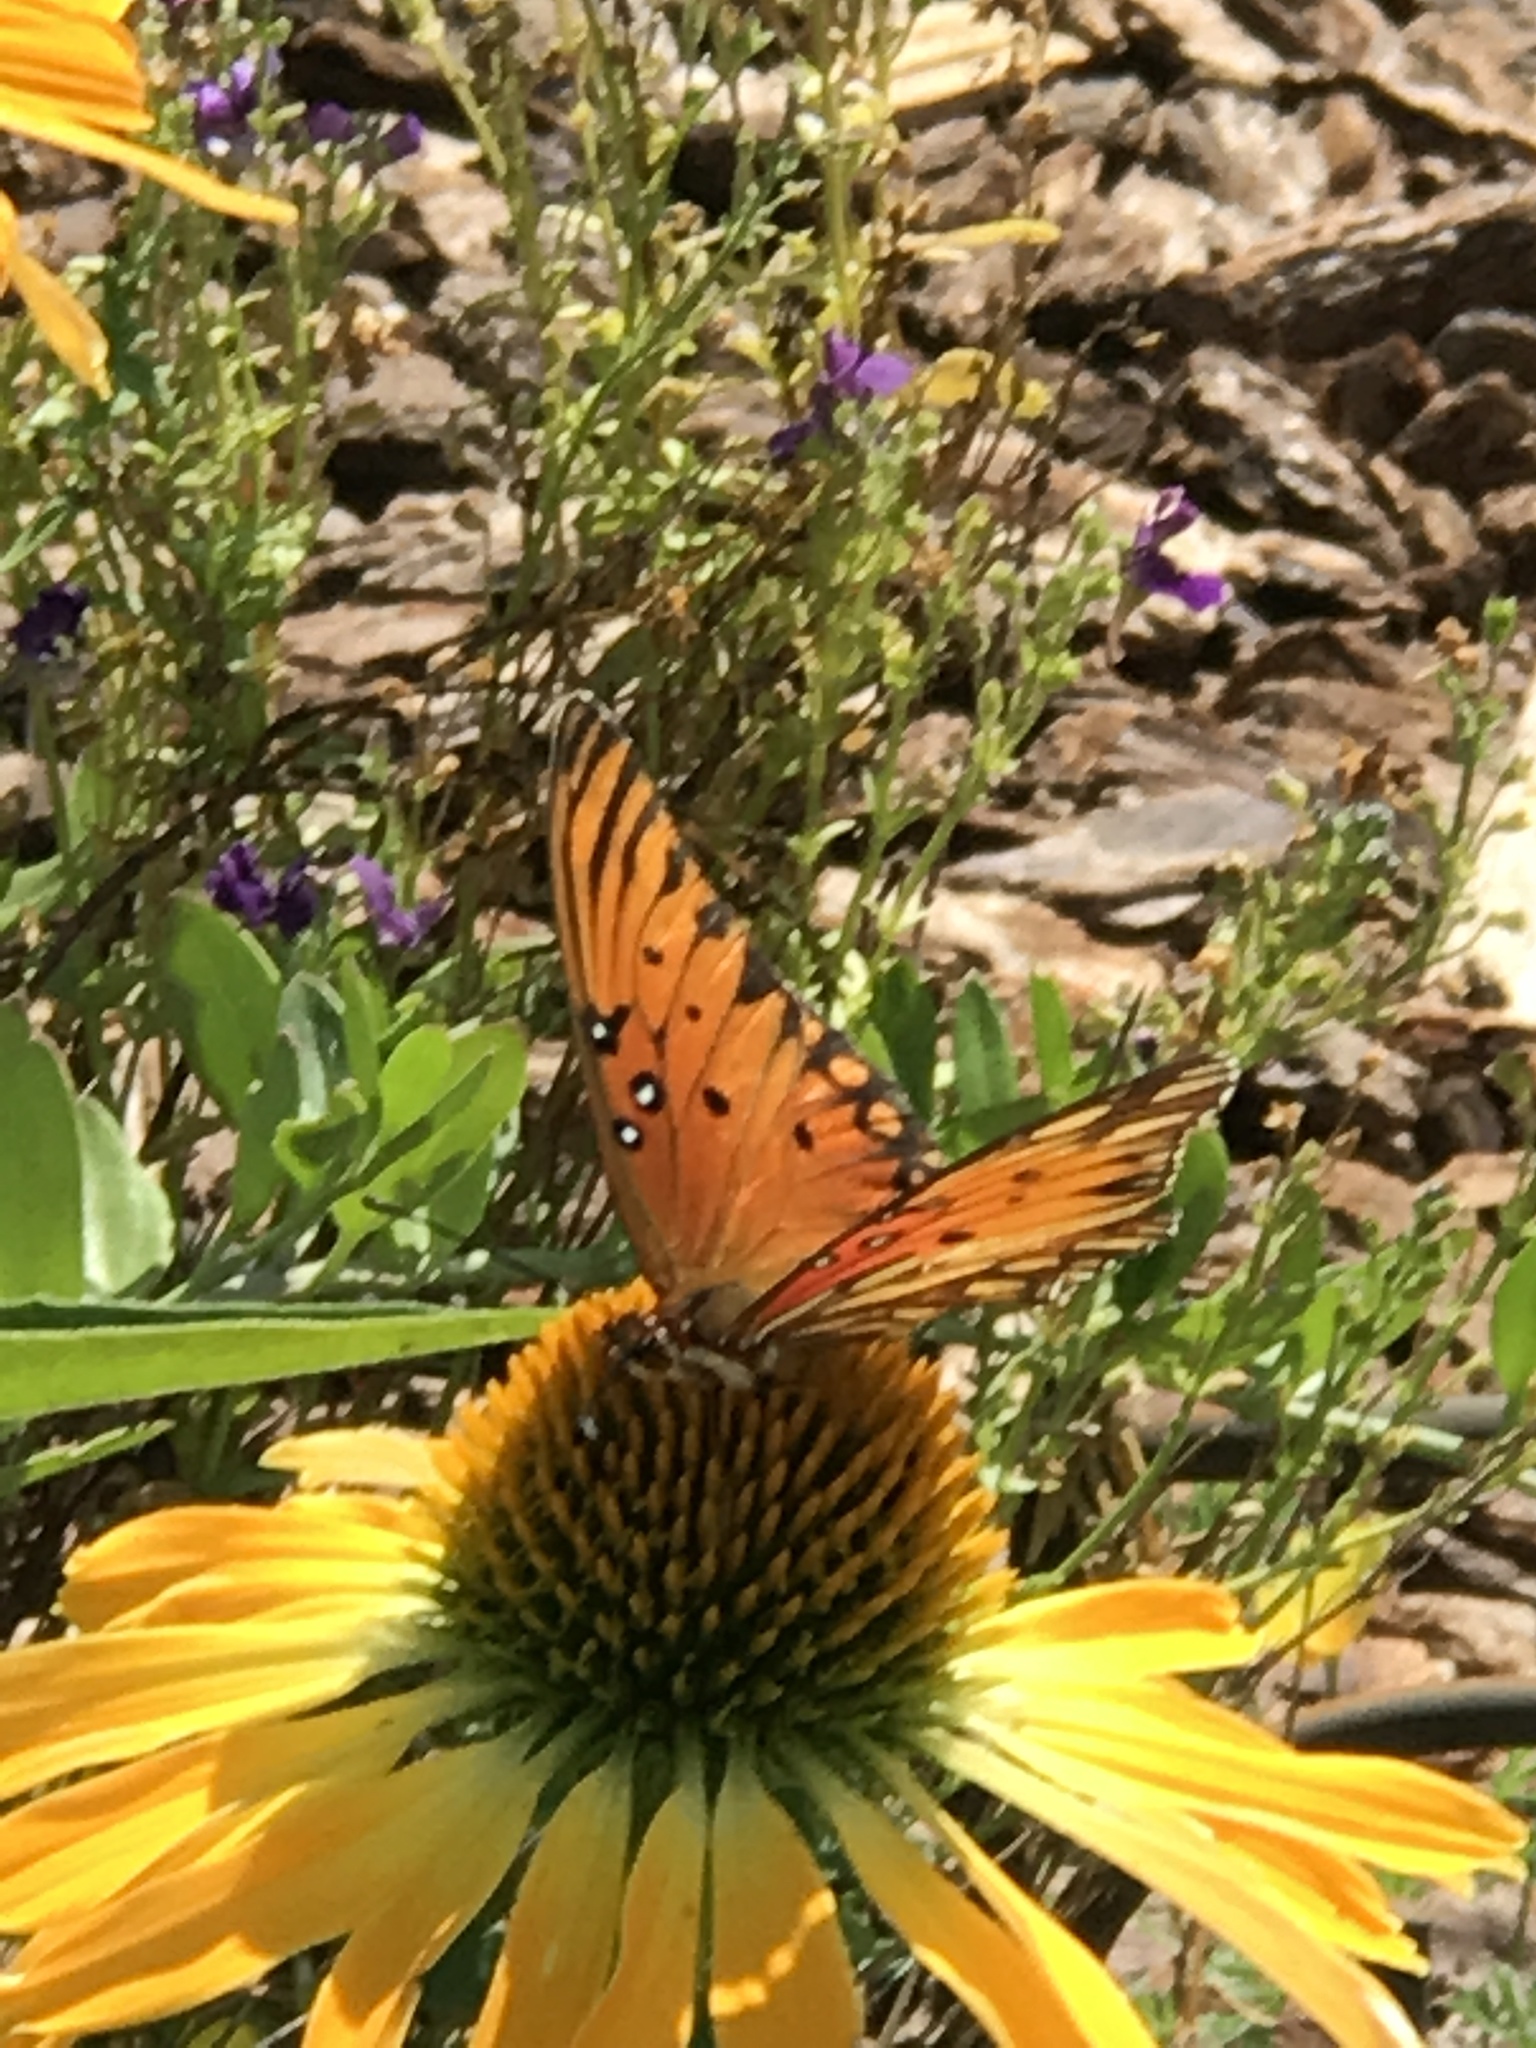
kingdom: Animalia
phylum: Arthropoda
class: Insecta
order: Lepidoptera
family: Nymphalidae
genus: Dione
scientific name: Dione vanillae
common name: Gulf fritillary
